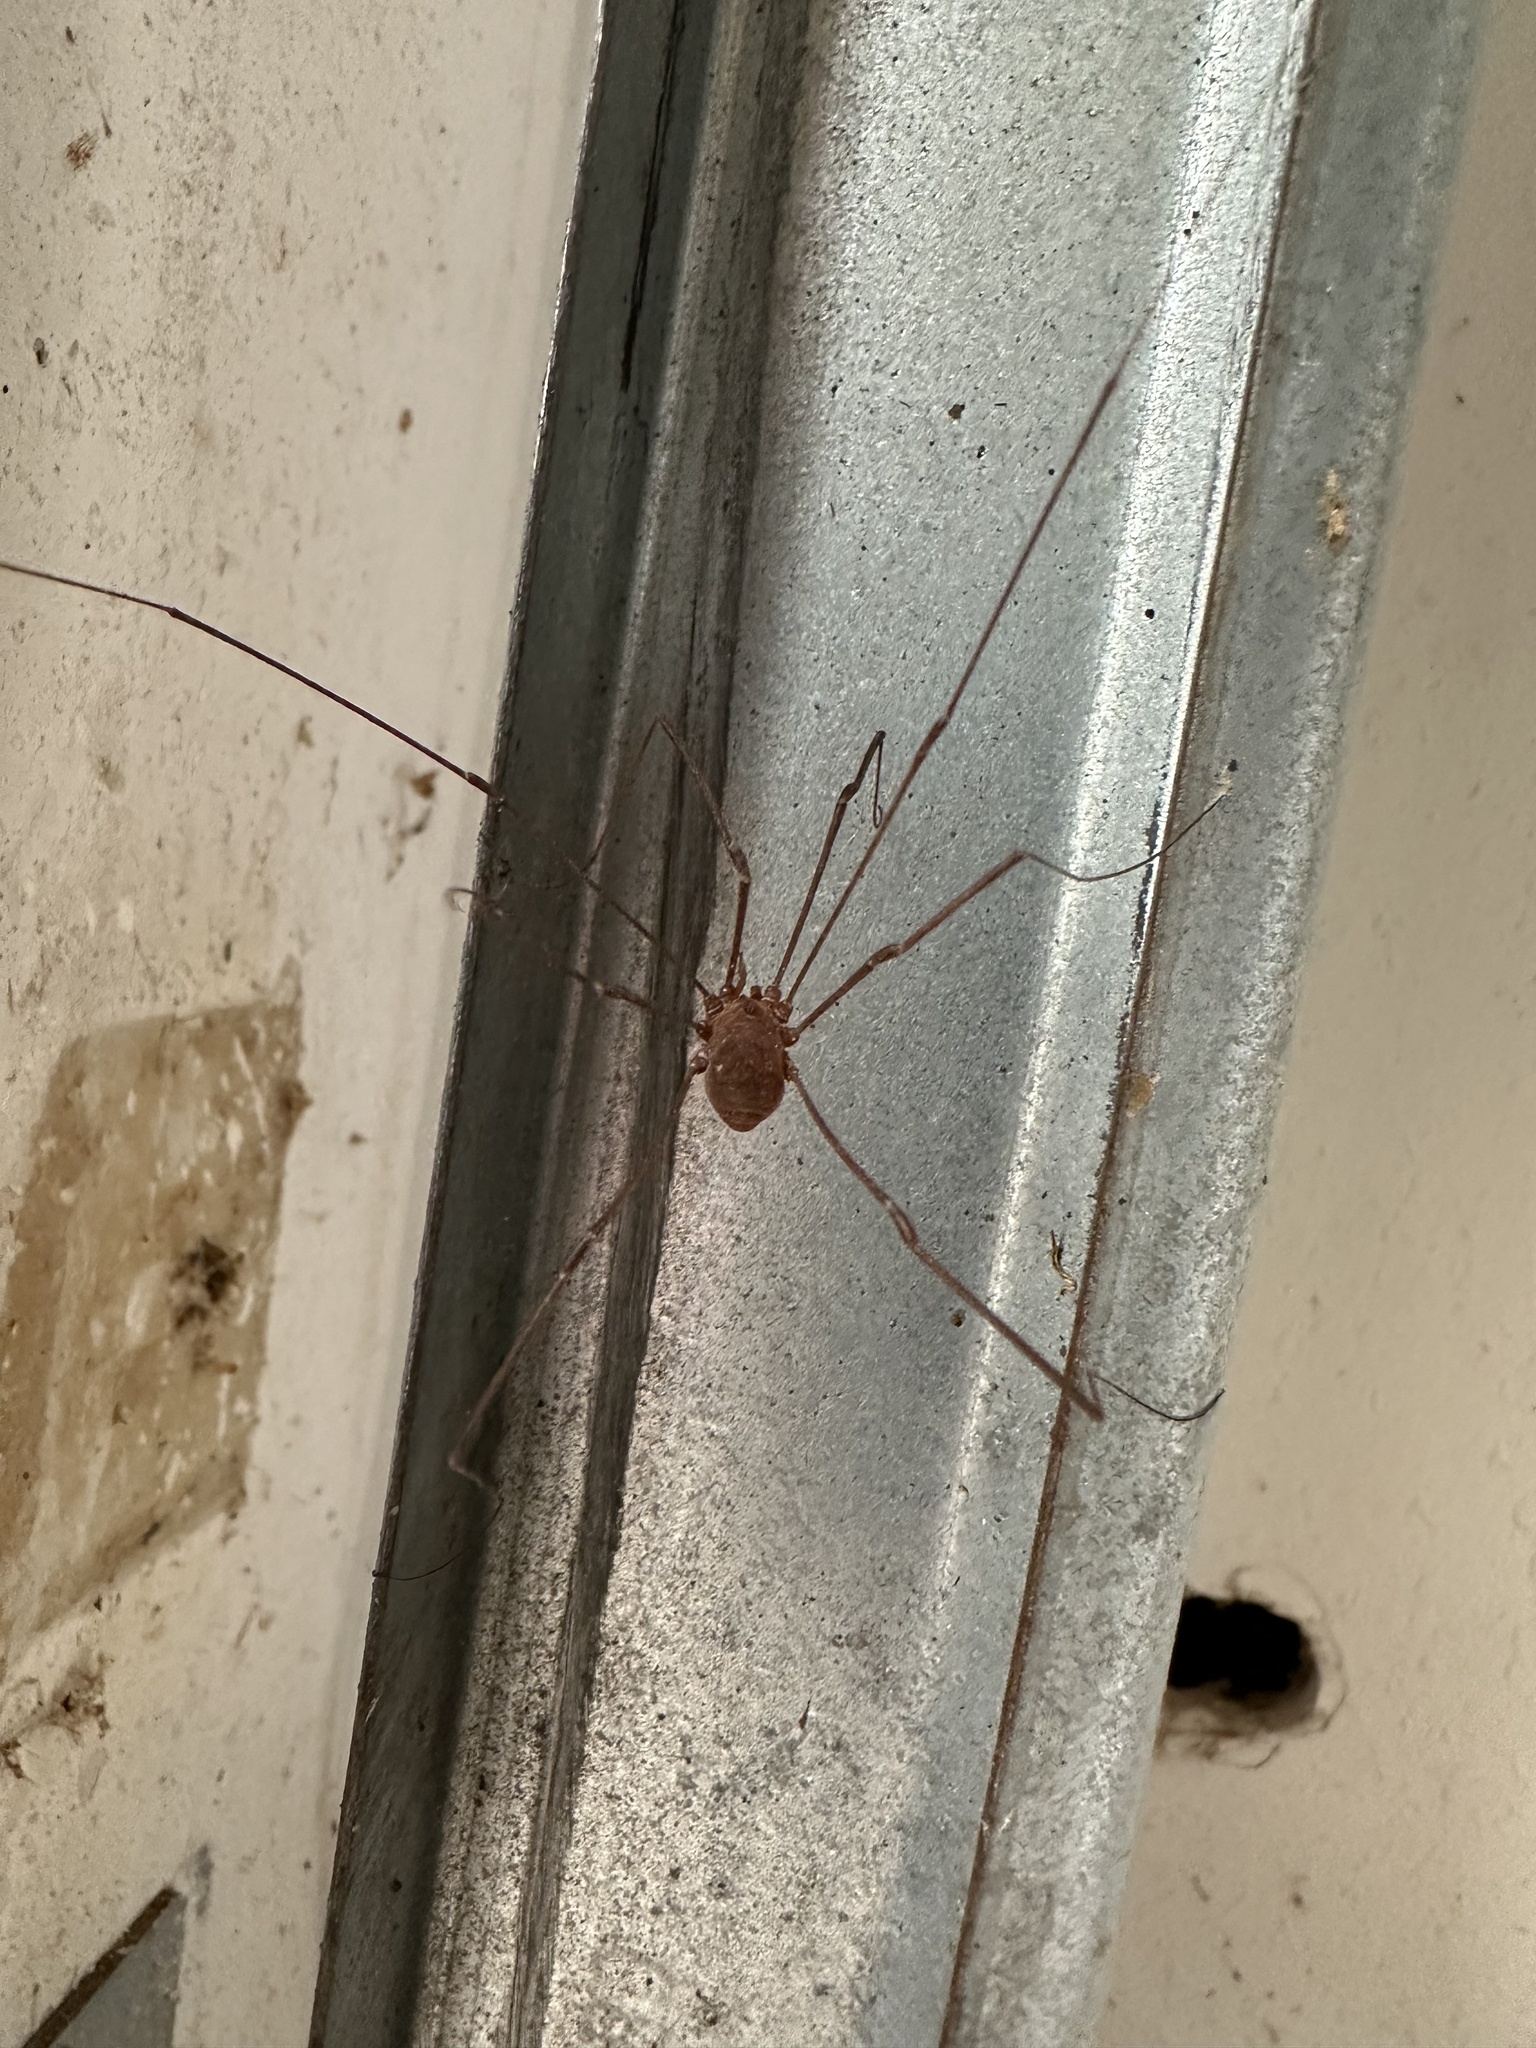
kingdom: Animalia
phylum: Arthropoda
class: Arachnida
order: Opiliones
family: Sclerosomatidae
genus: Leiobunum
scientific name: Leiobunum vittatum
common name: Eastern harvestman
